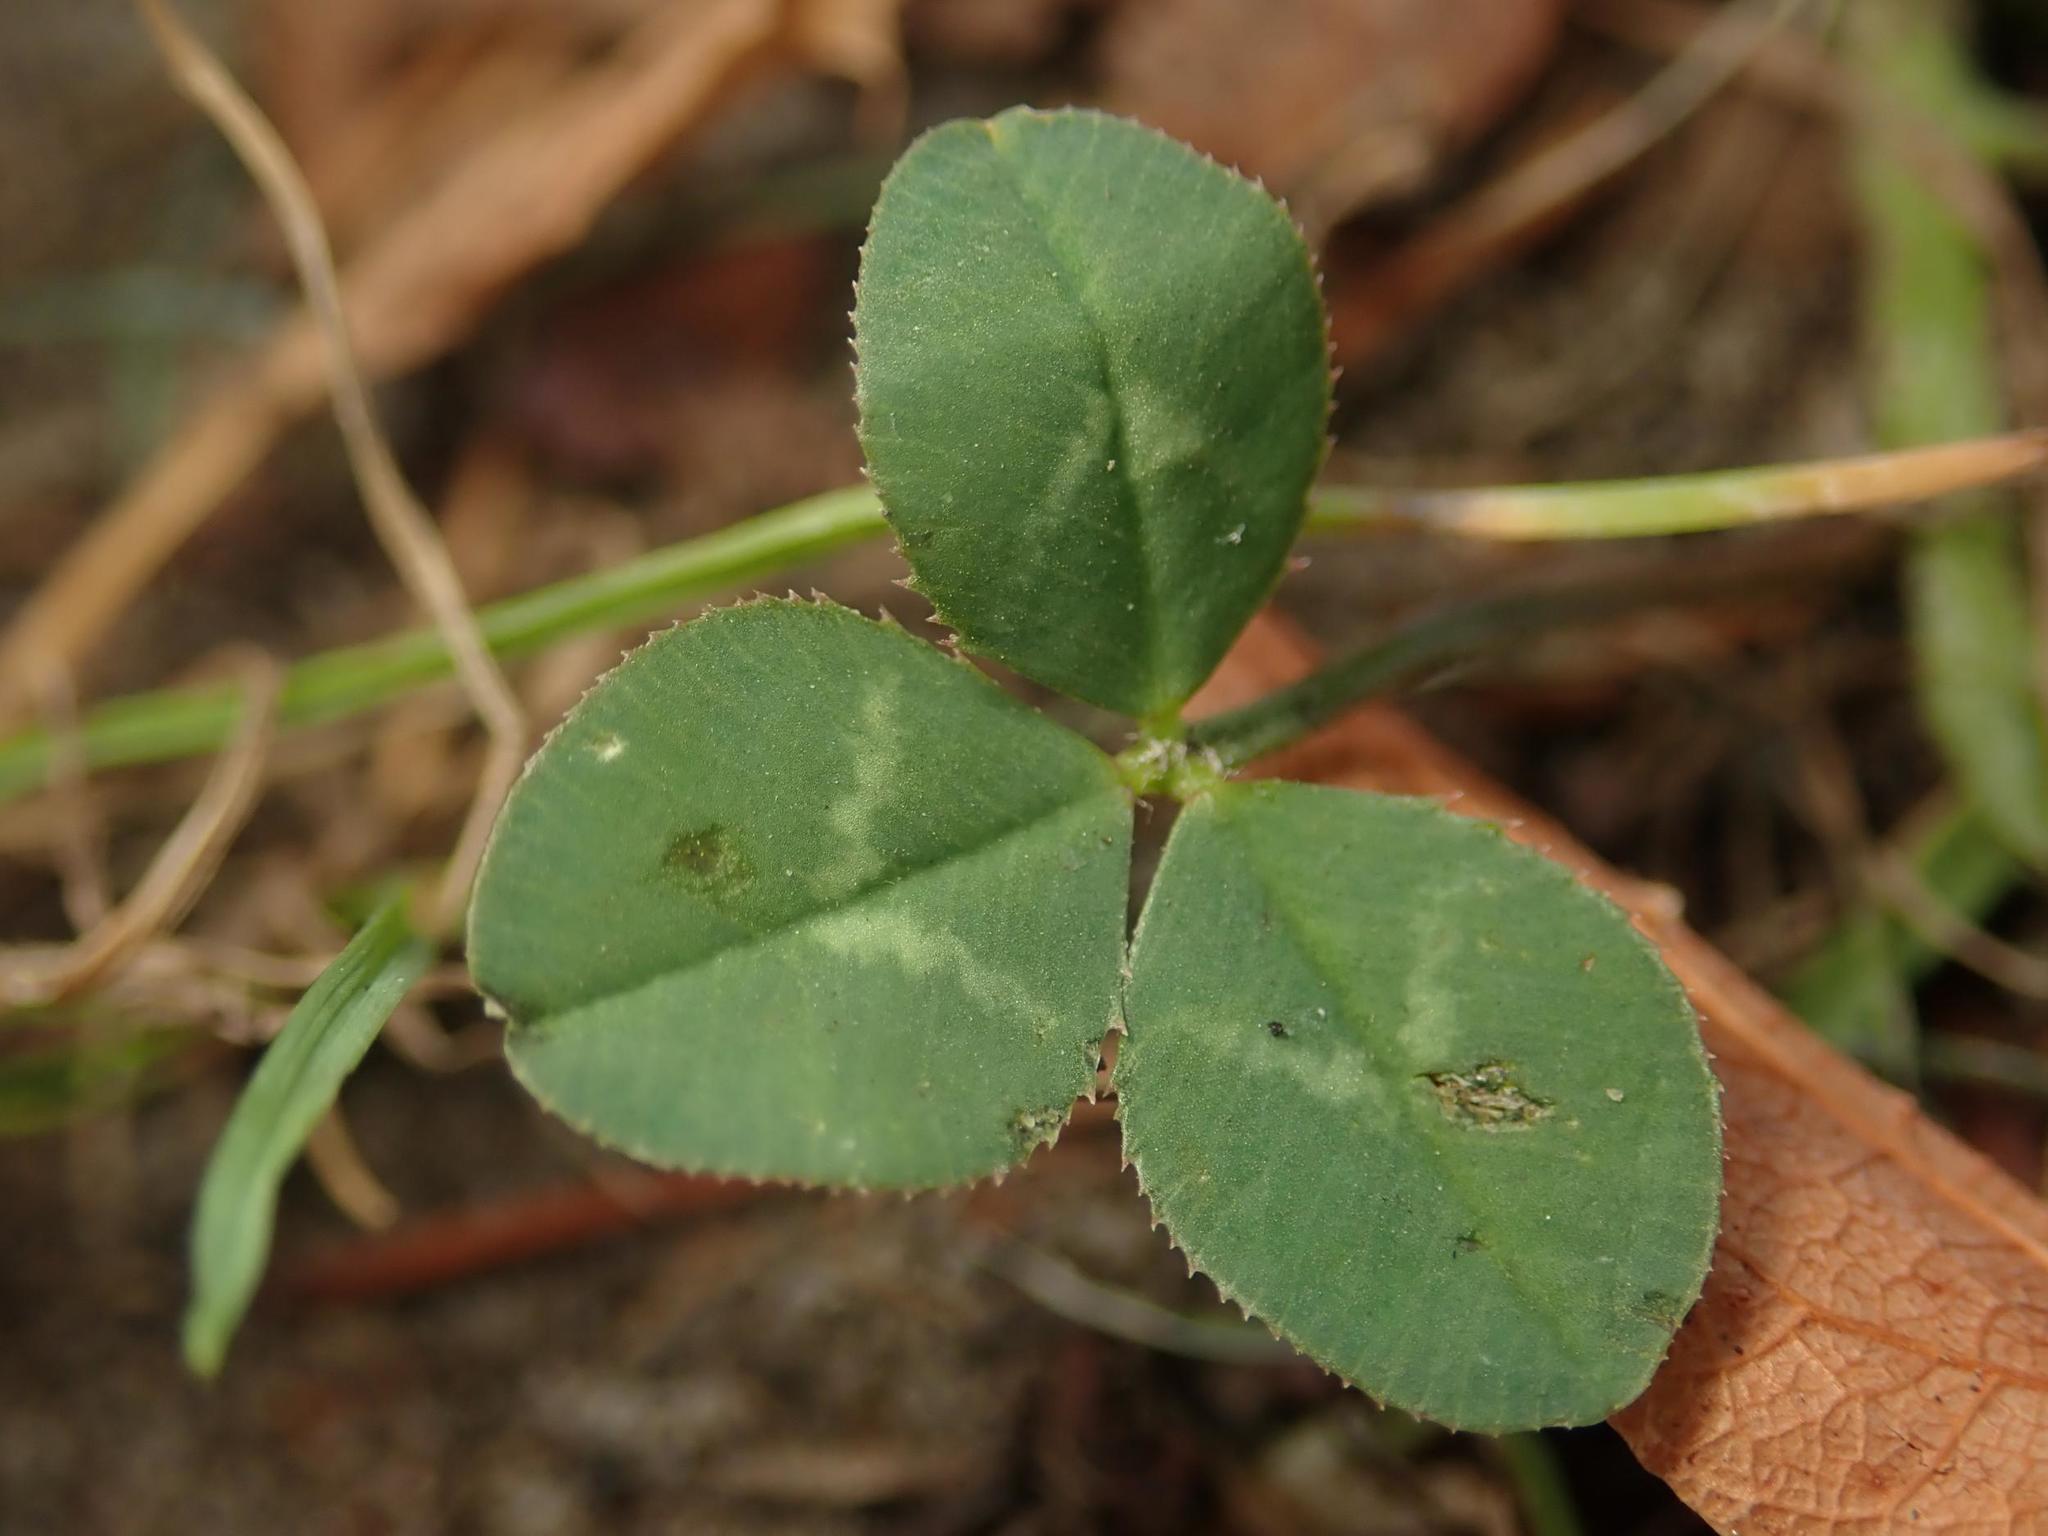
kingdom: Plantae
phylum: Tracheophyta
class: Magnoliopsida
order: Fabales
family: Fabaceae
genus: Trifolium
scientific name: Trifolium repens
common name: White clover
